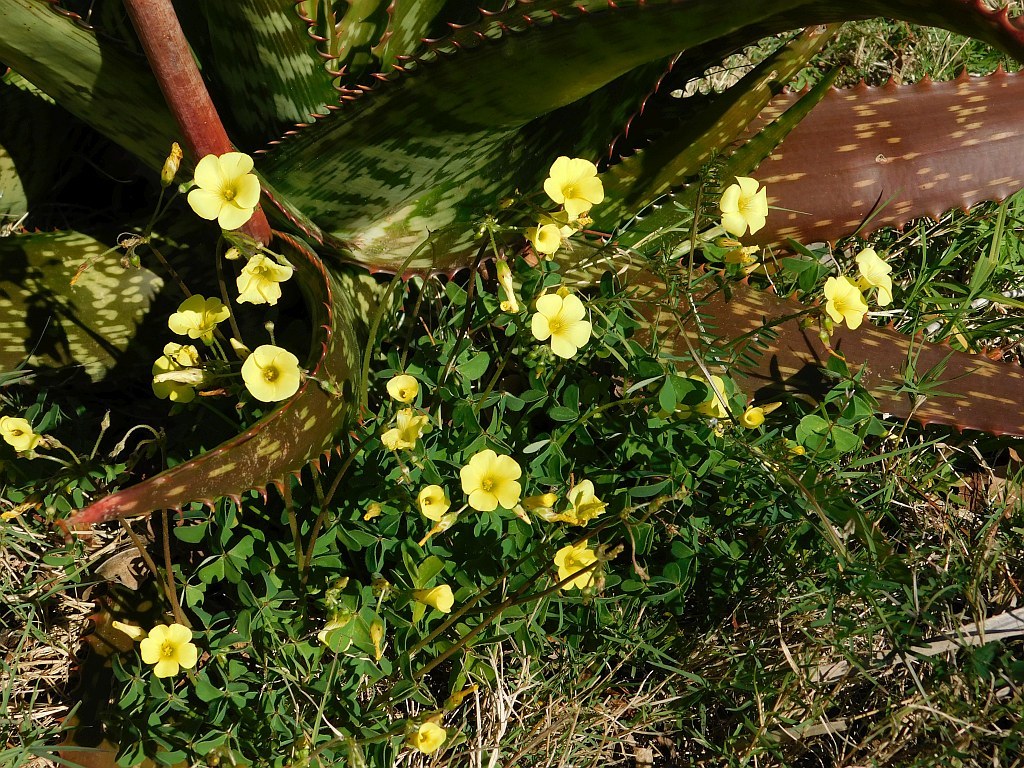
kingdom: Plantae
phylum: Tracheophyta
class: Magnoliopsida
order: Oxalidales
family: Oxalidaceae
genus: Oxalis
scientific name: Oxalis pes-caprae
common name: Bermuda-buttercup
